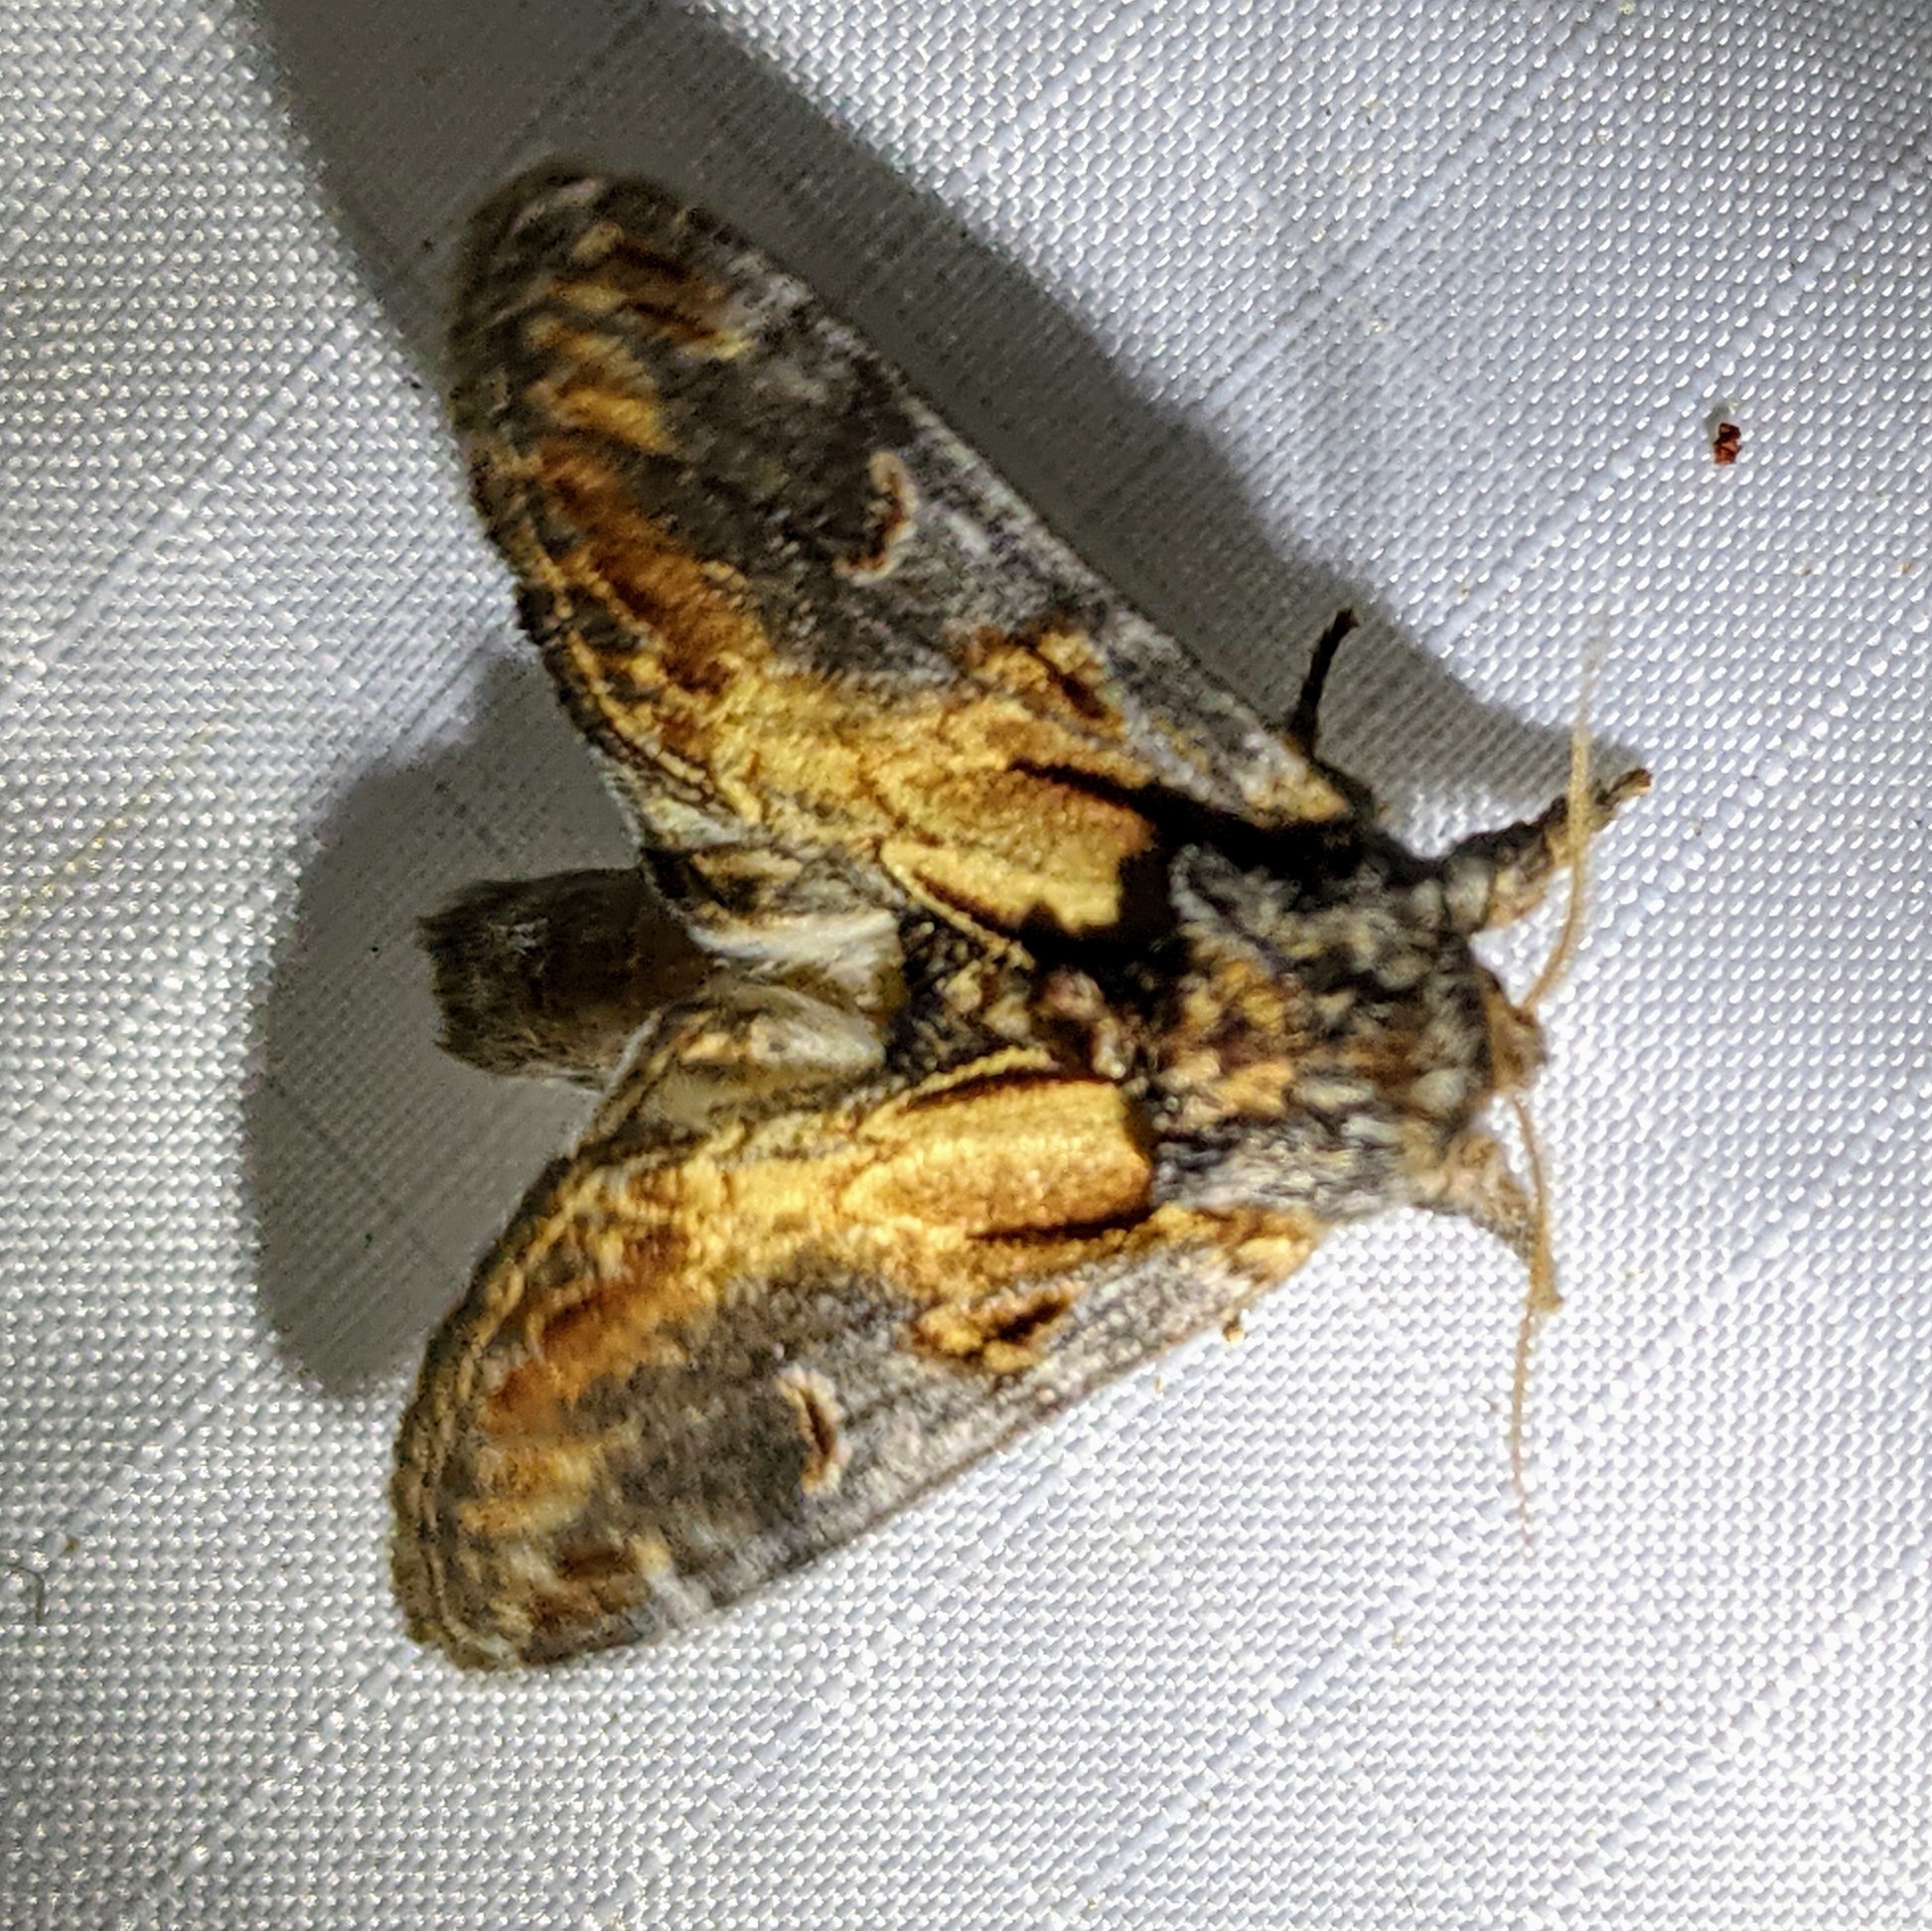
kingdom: Animalia
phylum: Arthropoda
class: Insecta
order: Lepidoptera
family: Notodontidae
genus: Notodonta
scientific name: Notodonta scitipennis
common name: Finned-willow prominent moth
